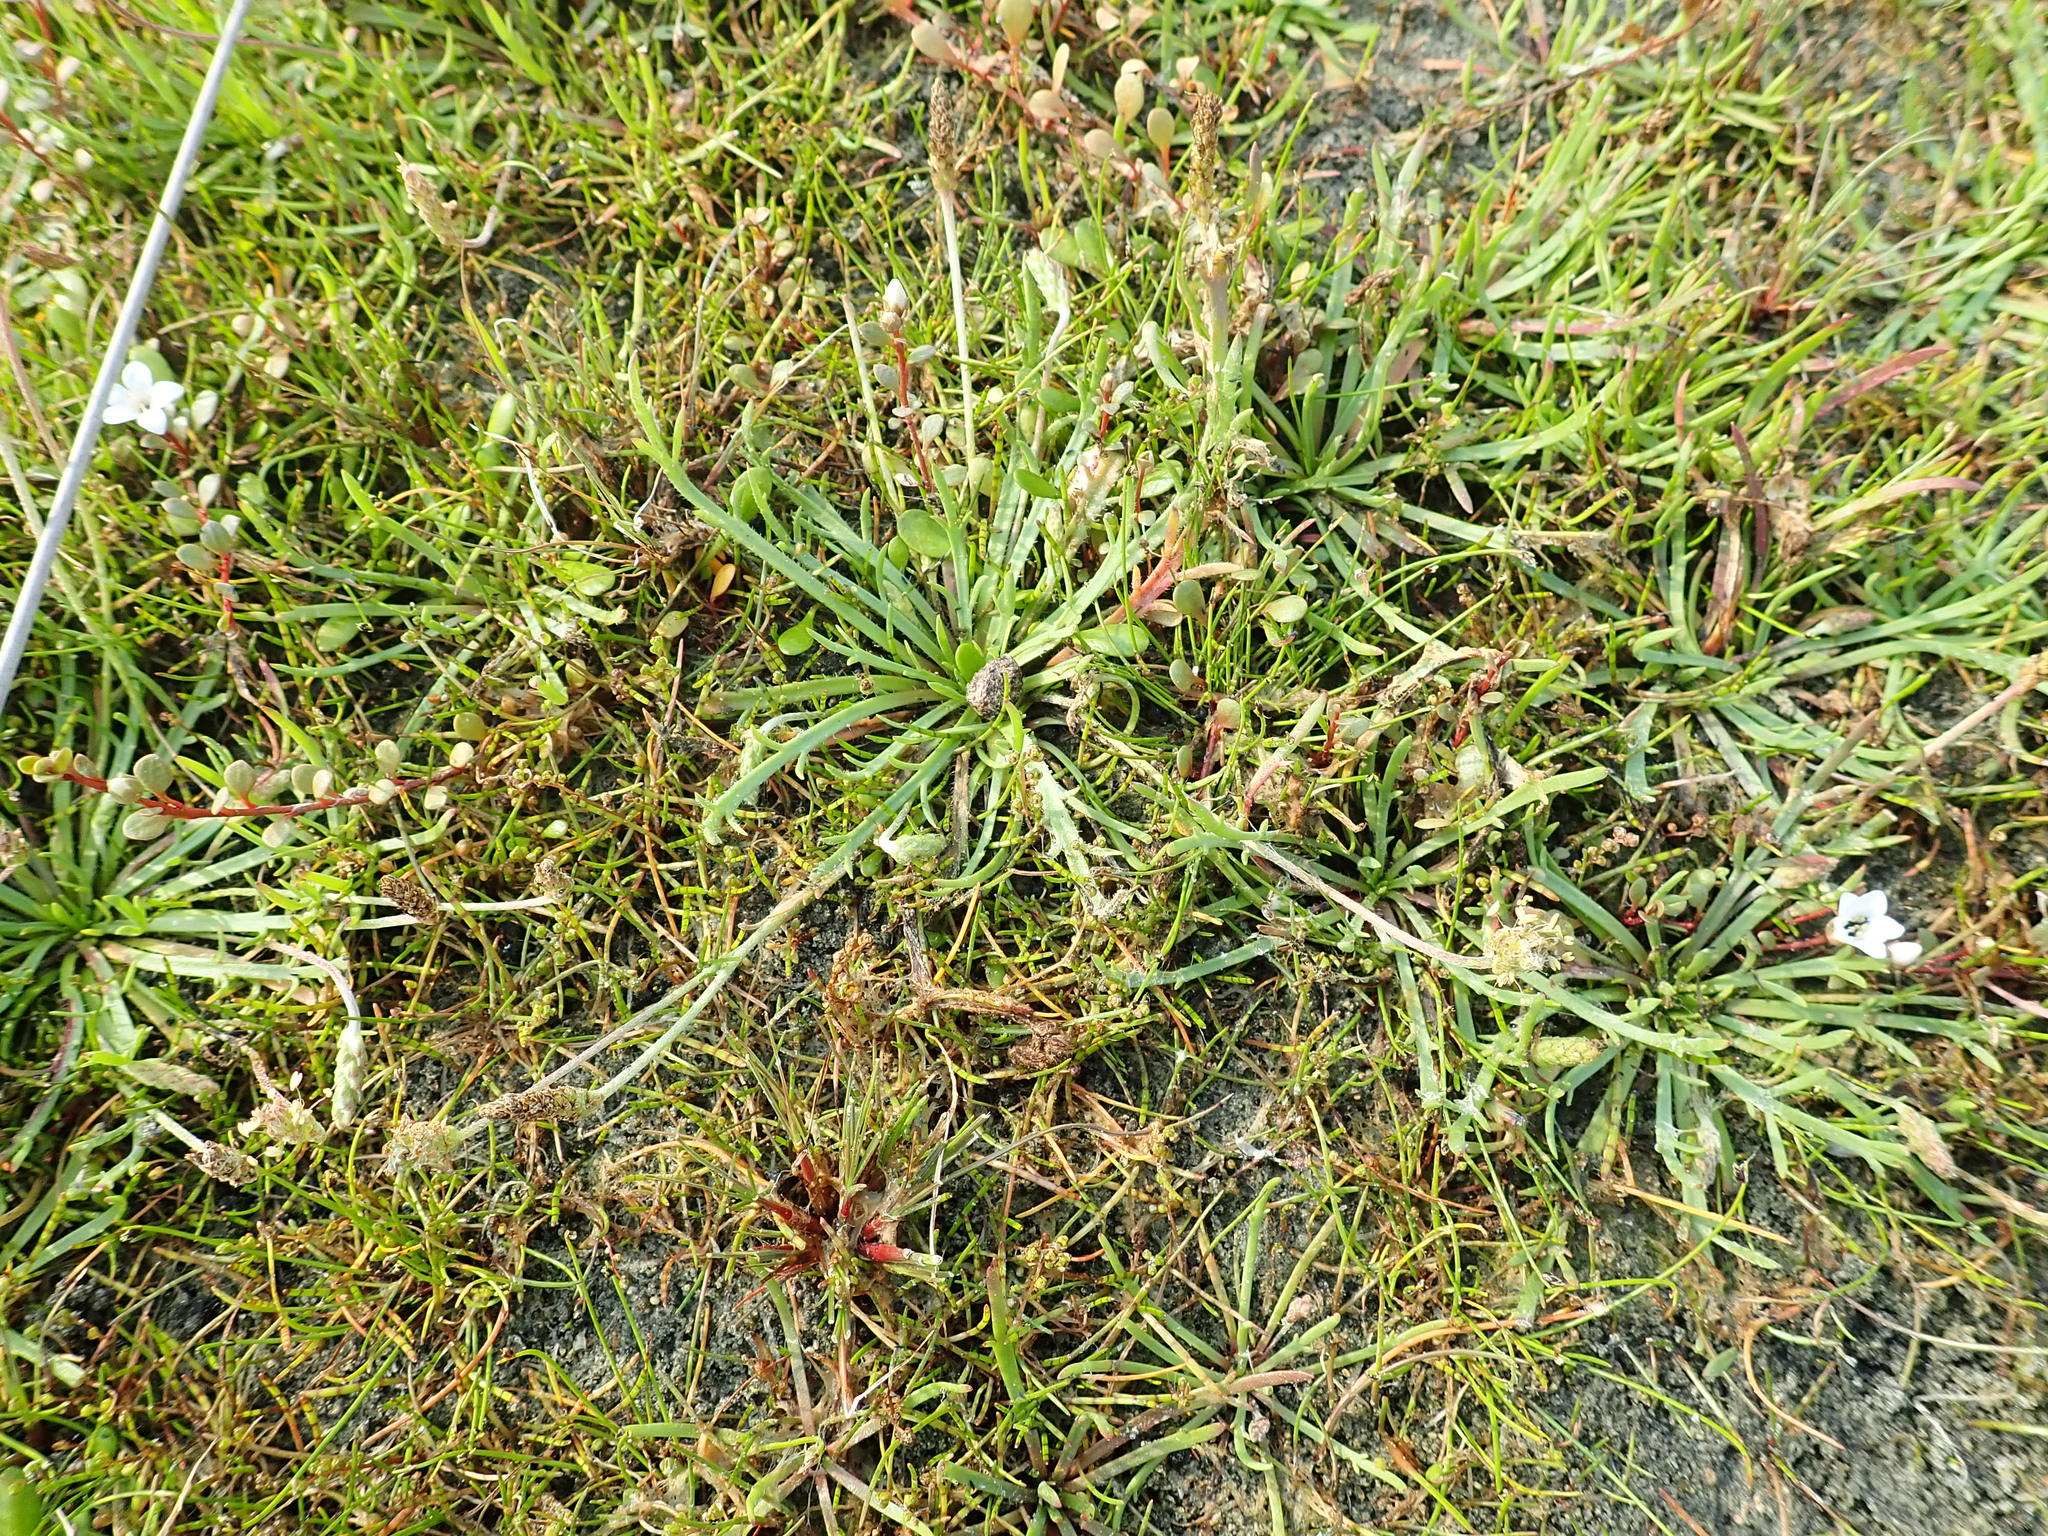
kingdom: Plantae
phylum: Tracheophyta
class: Magnoliopsida
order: Lamiales
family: Plantaginaceae
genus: Plantago
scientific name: Plantago coronopus
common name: Buck's-horn plantain
